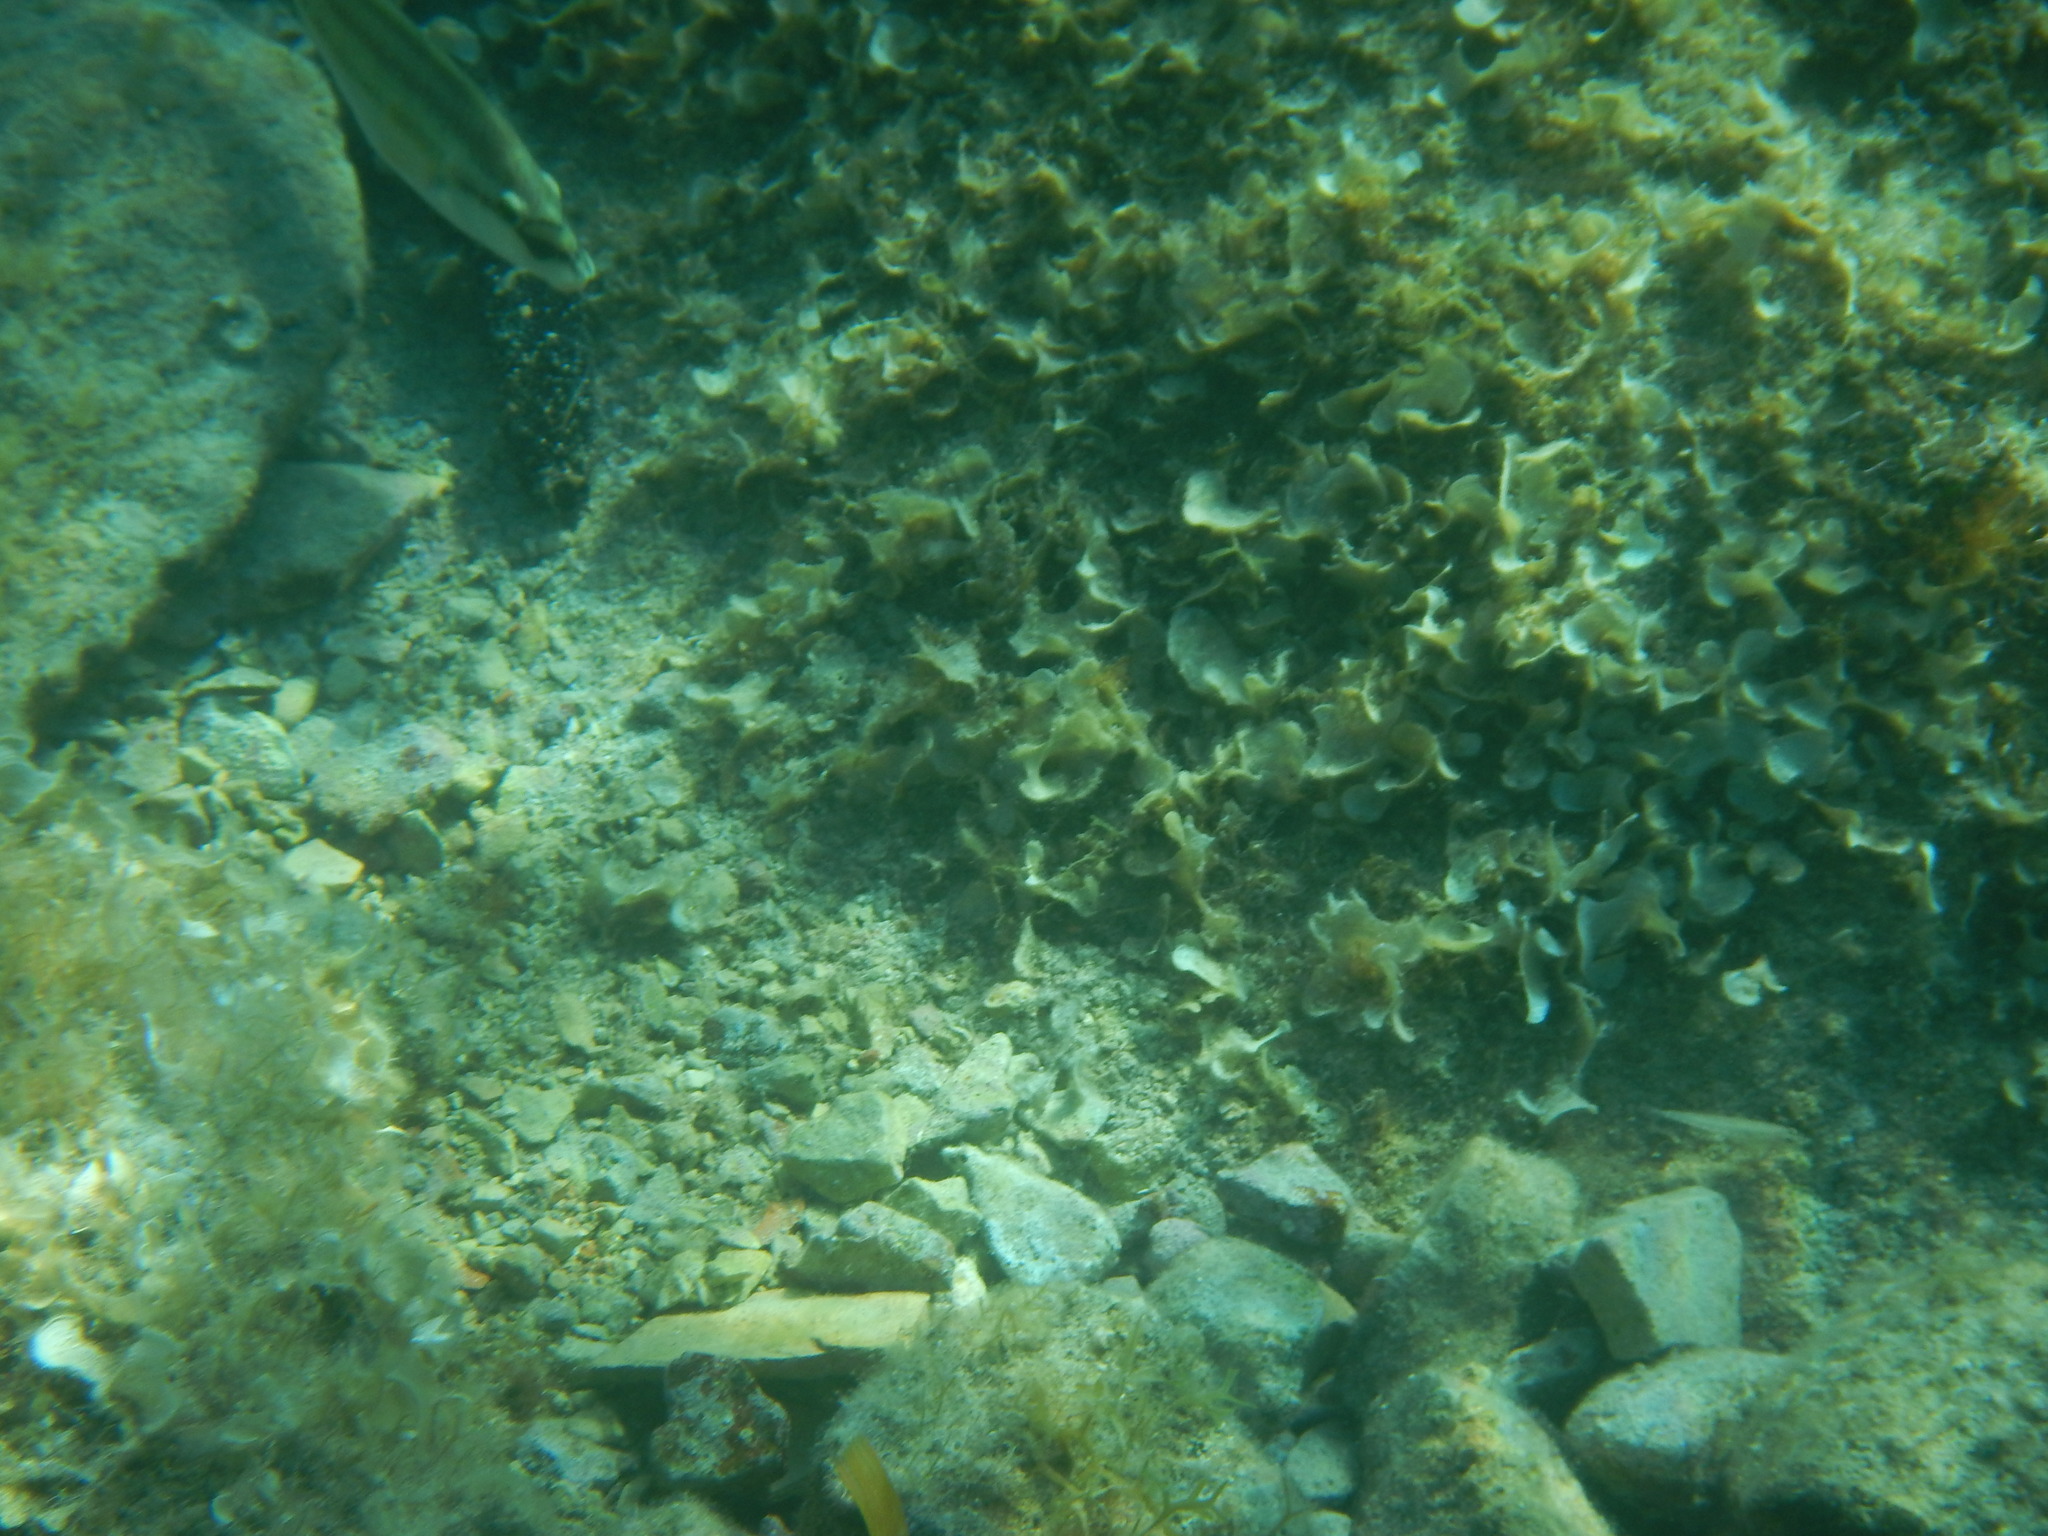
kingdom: Animalia
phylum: Chordata
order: Perciformes
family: Labridae
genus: Symphodus
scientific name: Symphodus tinca
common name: Peacock wrasse
